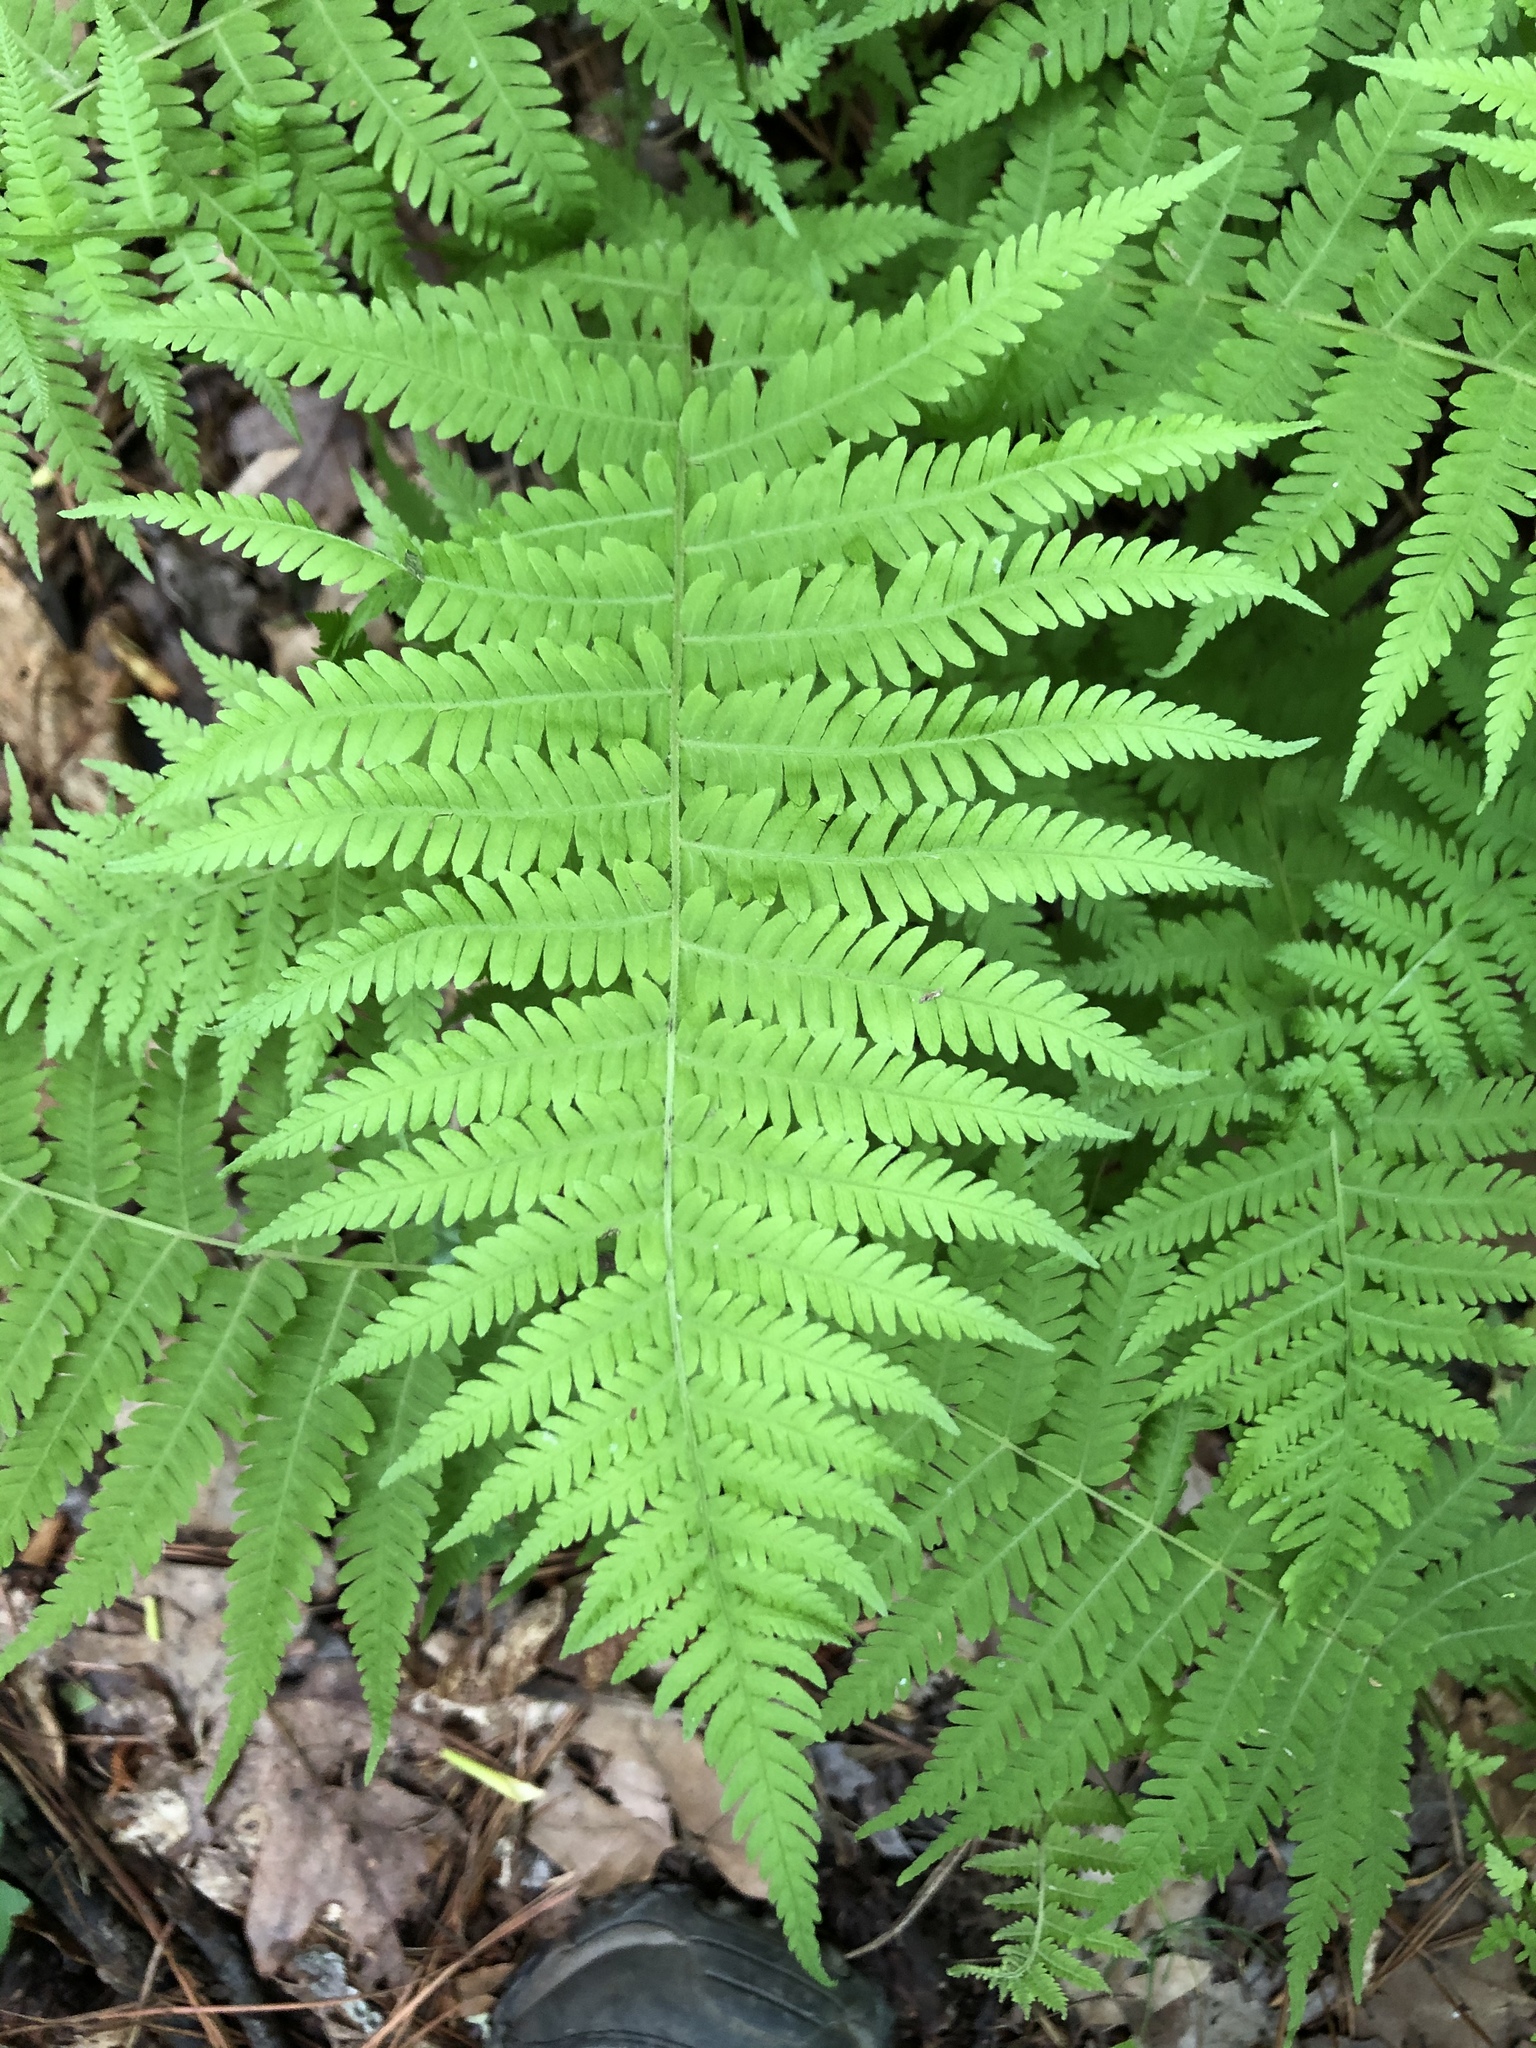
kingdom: Plantae
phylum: Tracheophyta
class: Polypodiopsida
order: Polypodiales
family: Thelypteridaceae
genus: Amauropelta
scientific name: Amauropelta noveboracensis
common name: New york fern
